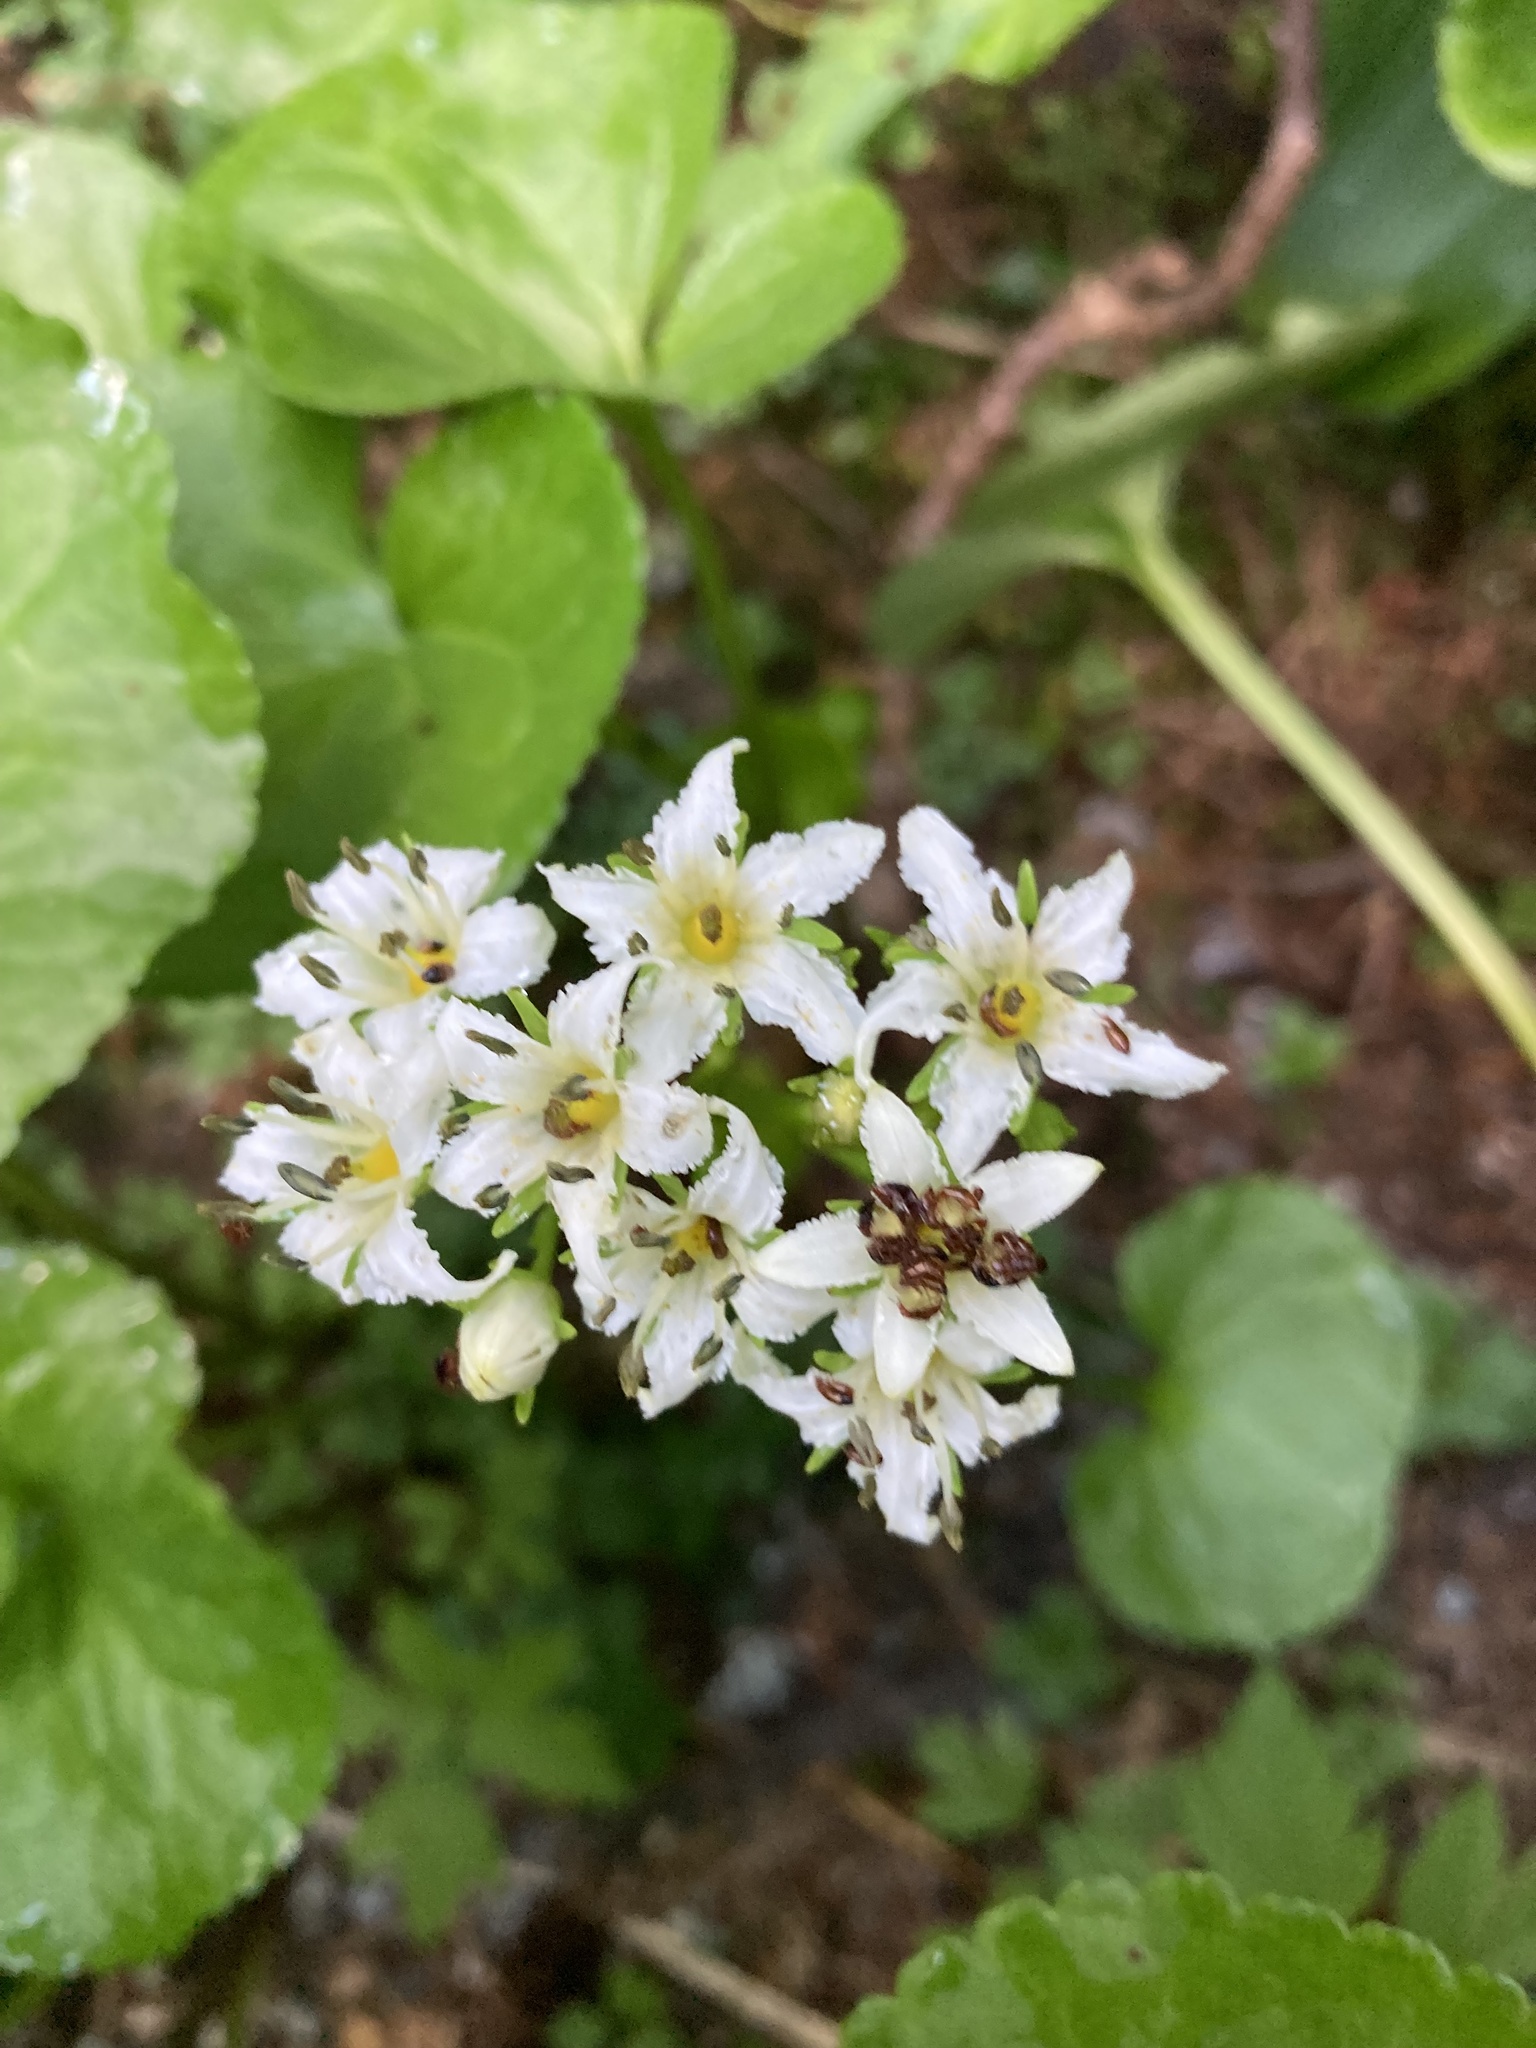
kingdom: Plantae
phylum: Tracheophyta
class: Magnoliopsida
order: Asterales
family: Menyanthaceae
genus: Nephrophyllidium
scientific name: Nephrophyllidium crista-galli
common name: Deer-cabbage
